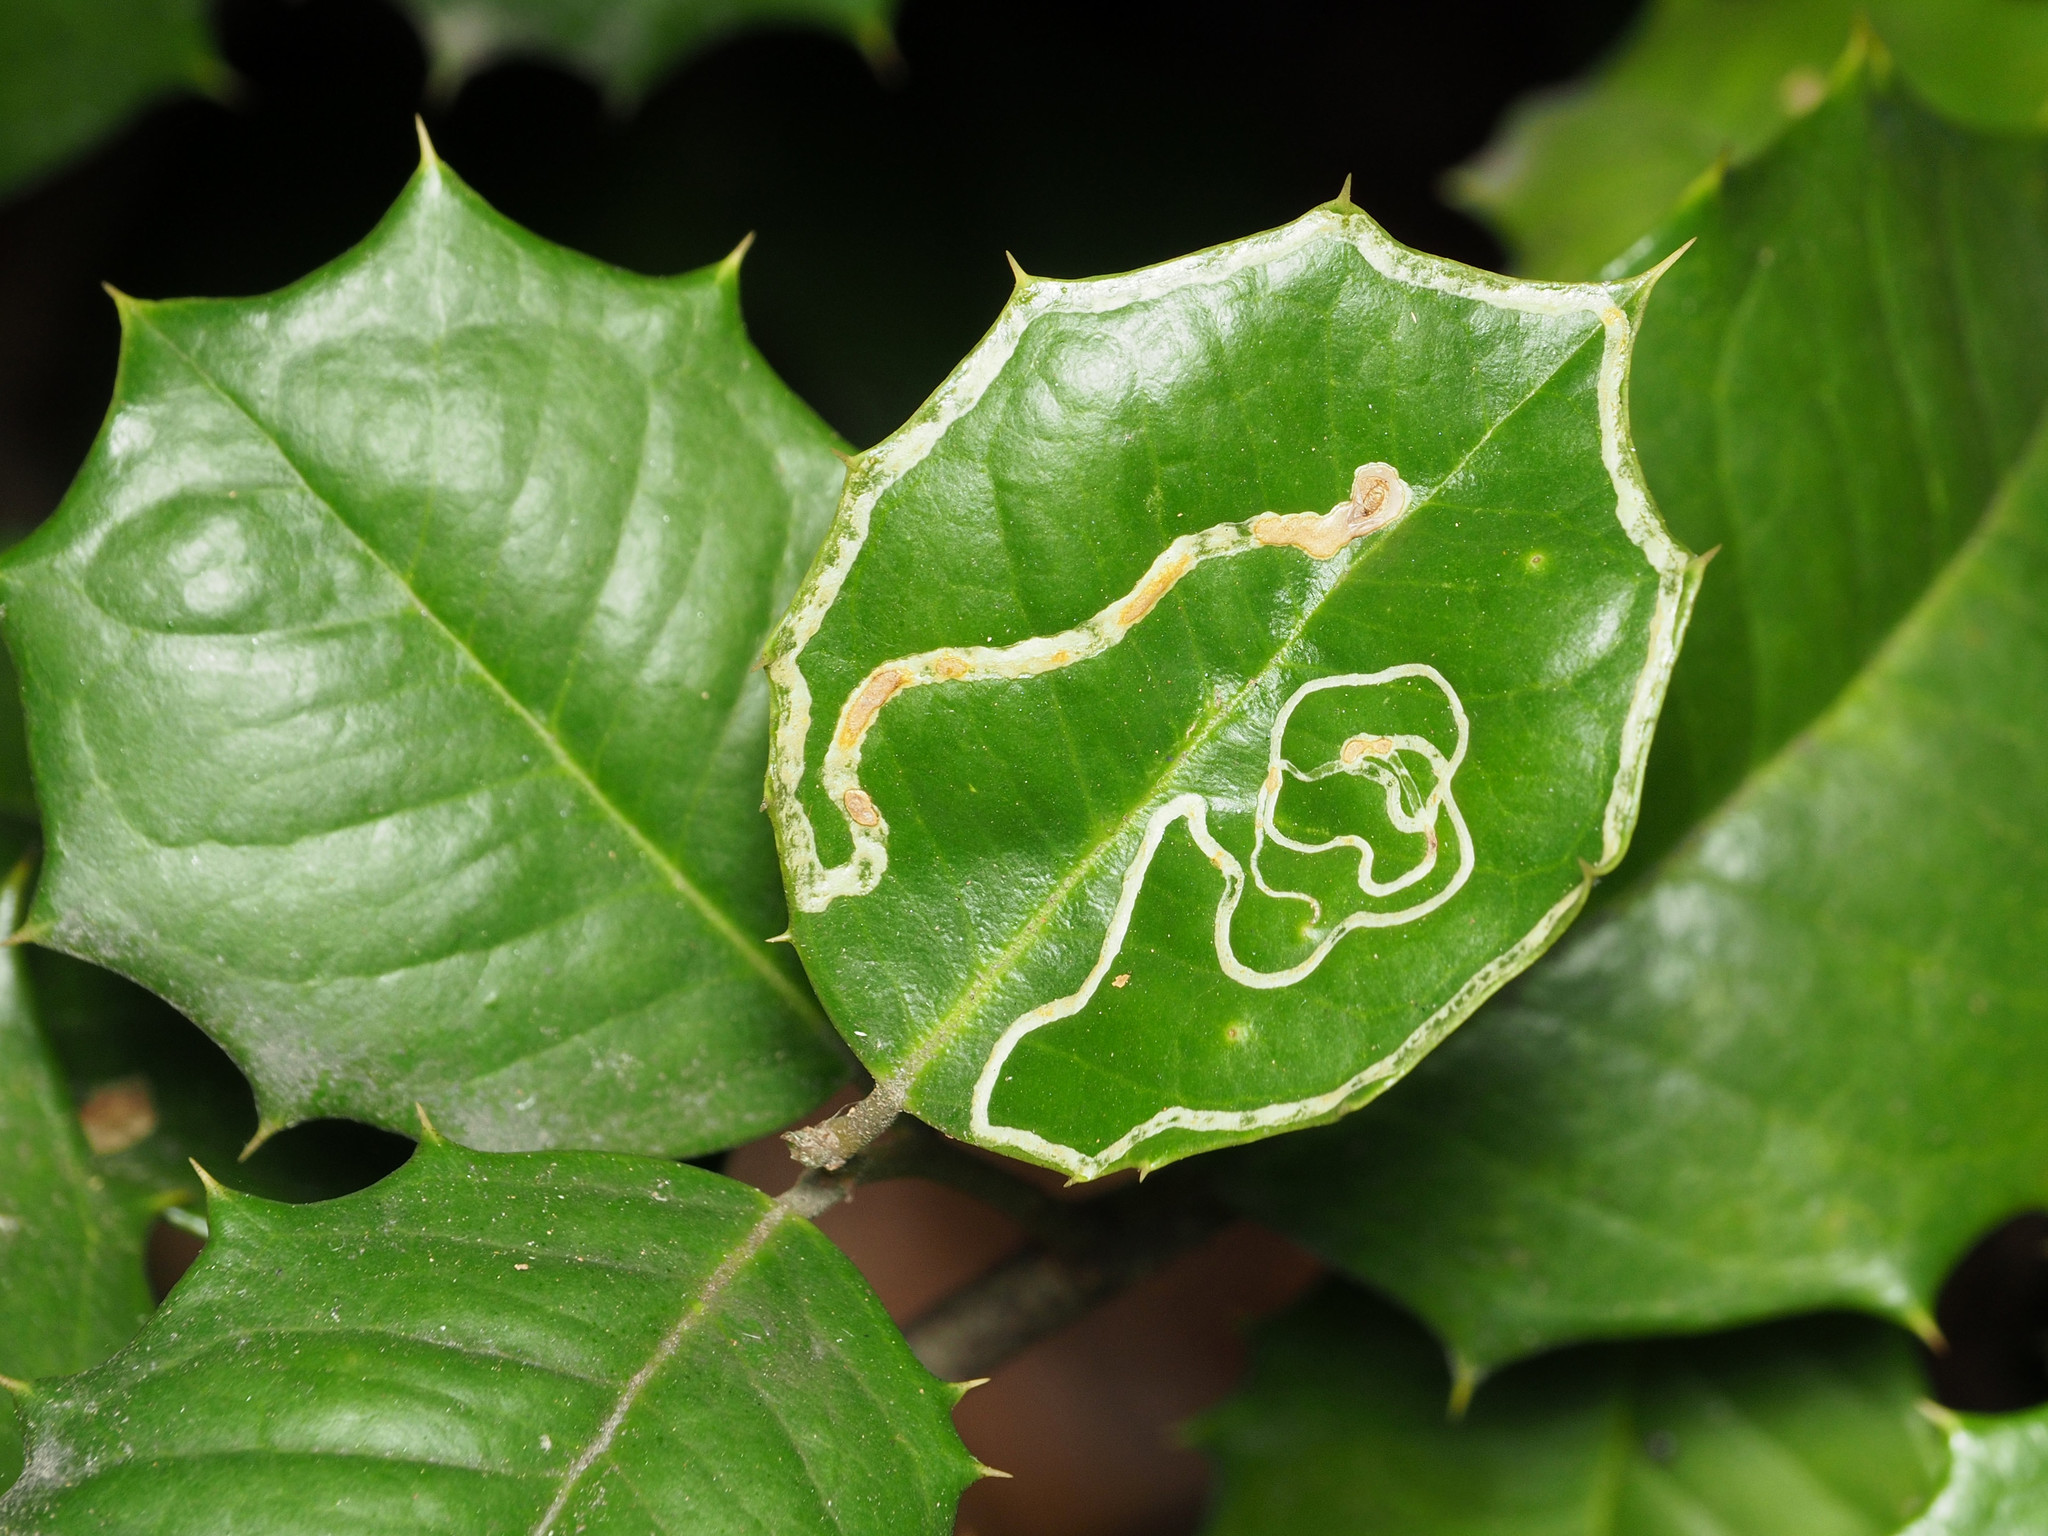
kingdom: Animalia
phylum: Arthropoda
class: Insecta
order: Diptera
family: Agromyzidae
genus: Phytomyza
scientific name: Phytomyza opacae
